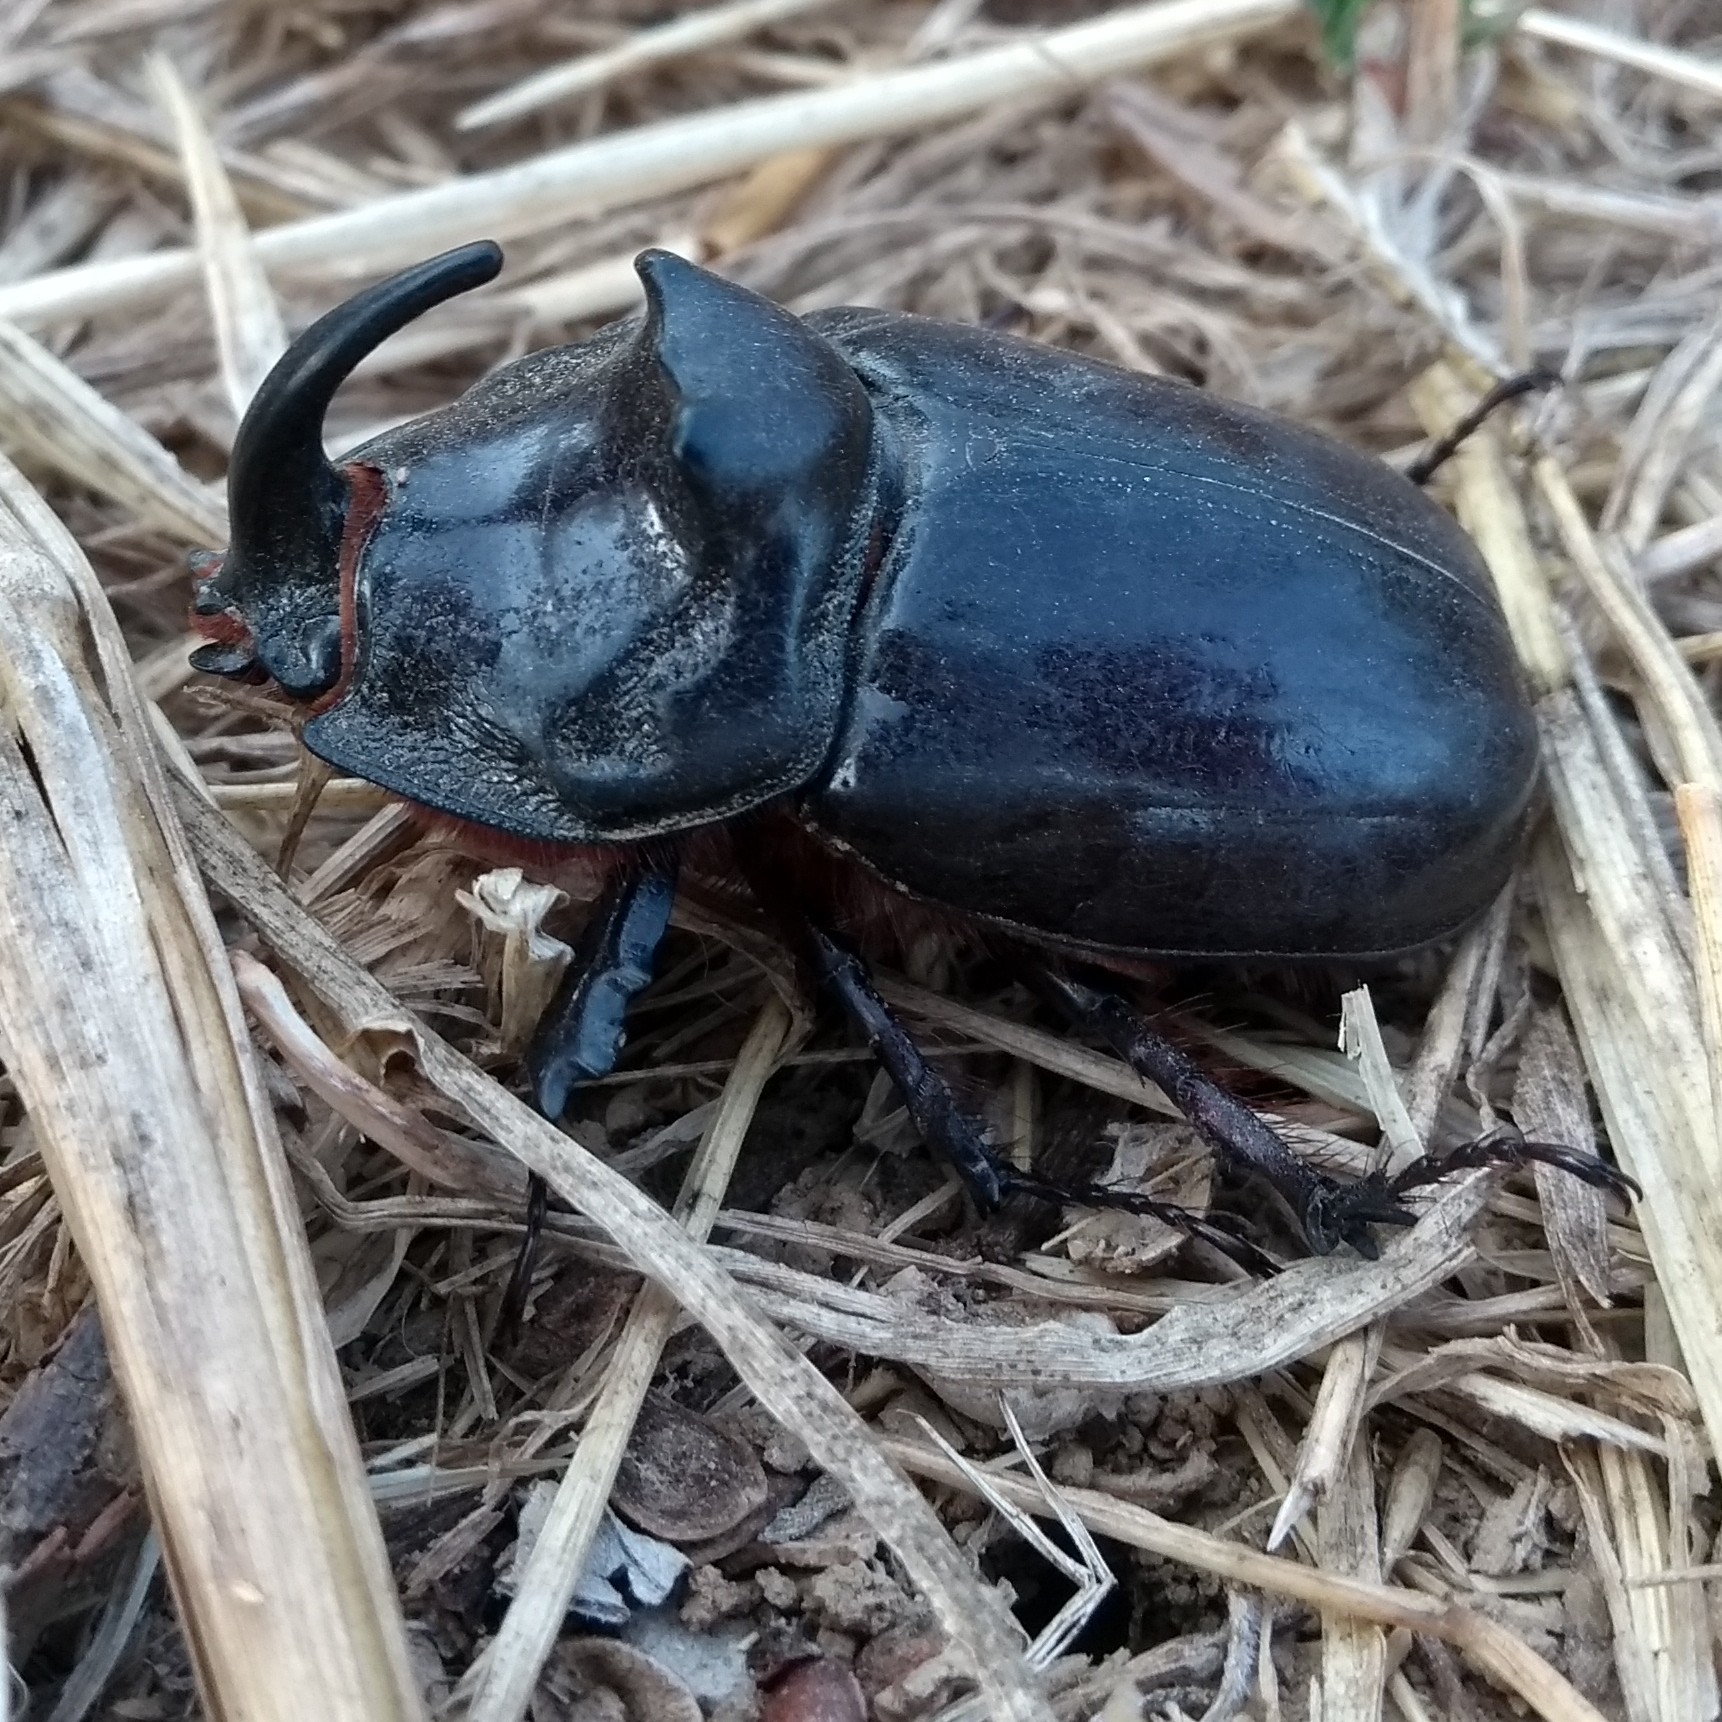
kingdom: Animalia
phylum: Arthropoda
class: Insecta
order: Coleoptera
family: Scarabaeidae
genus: Oryctes
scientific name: Oryctes nasicornis
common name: European rhinoceros beetle
